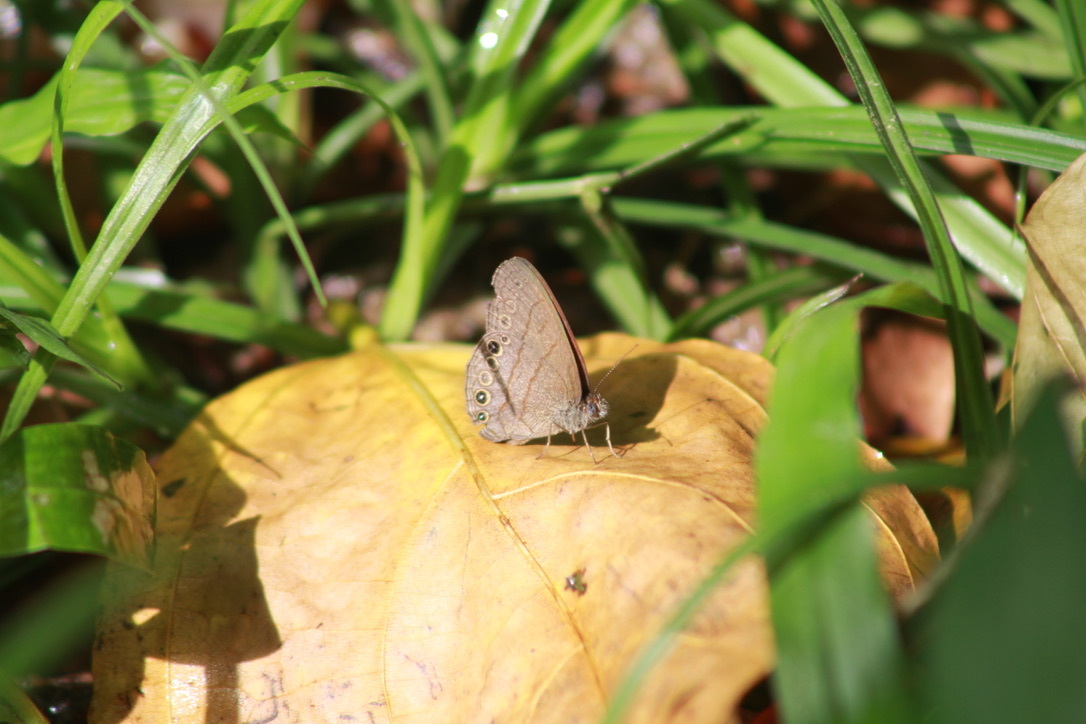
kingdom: Animalia
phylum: Arthropoda
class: Insecta
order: Lepidoptera
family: Nymphalidae
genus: Hermeuptychia
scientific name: Hermeuptychia canthe
